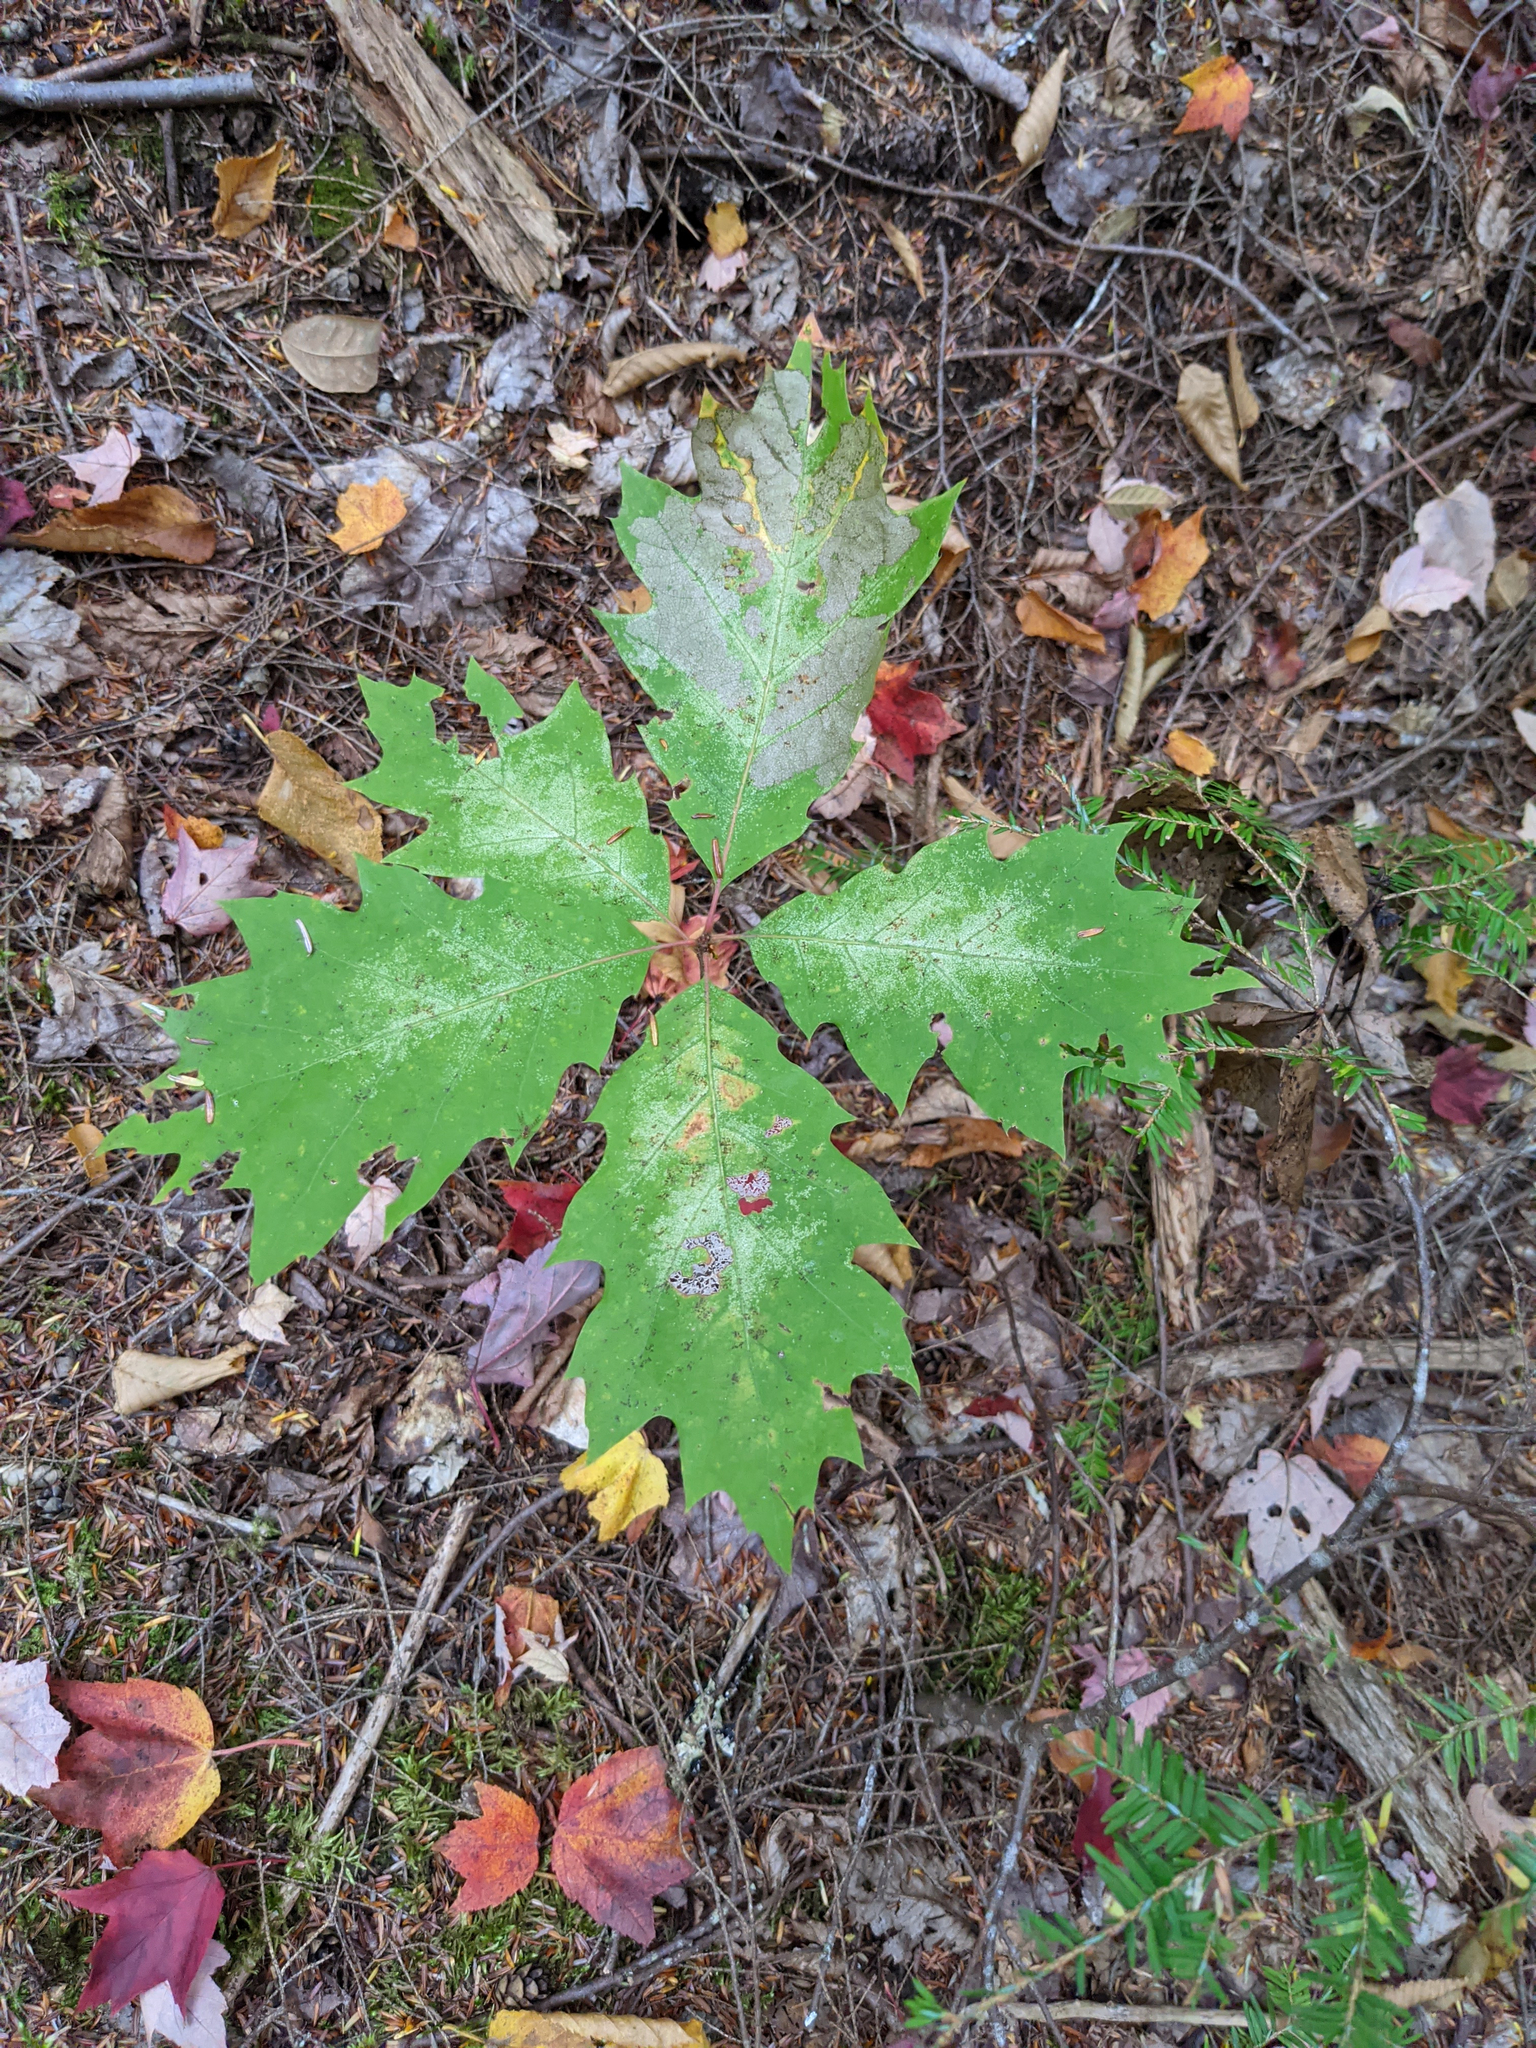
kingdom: Plantae
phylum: Tracheophyta
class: Magnoliopsida
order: Fagales
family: Fagaceae
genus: Quercus
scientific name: Quercus rubra
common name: Red oak
